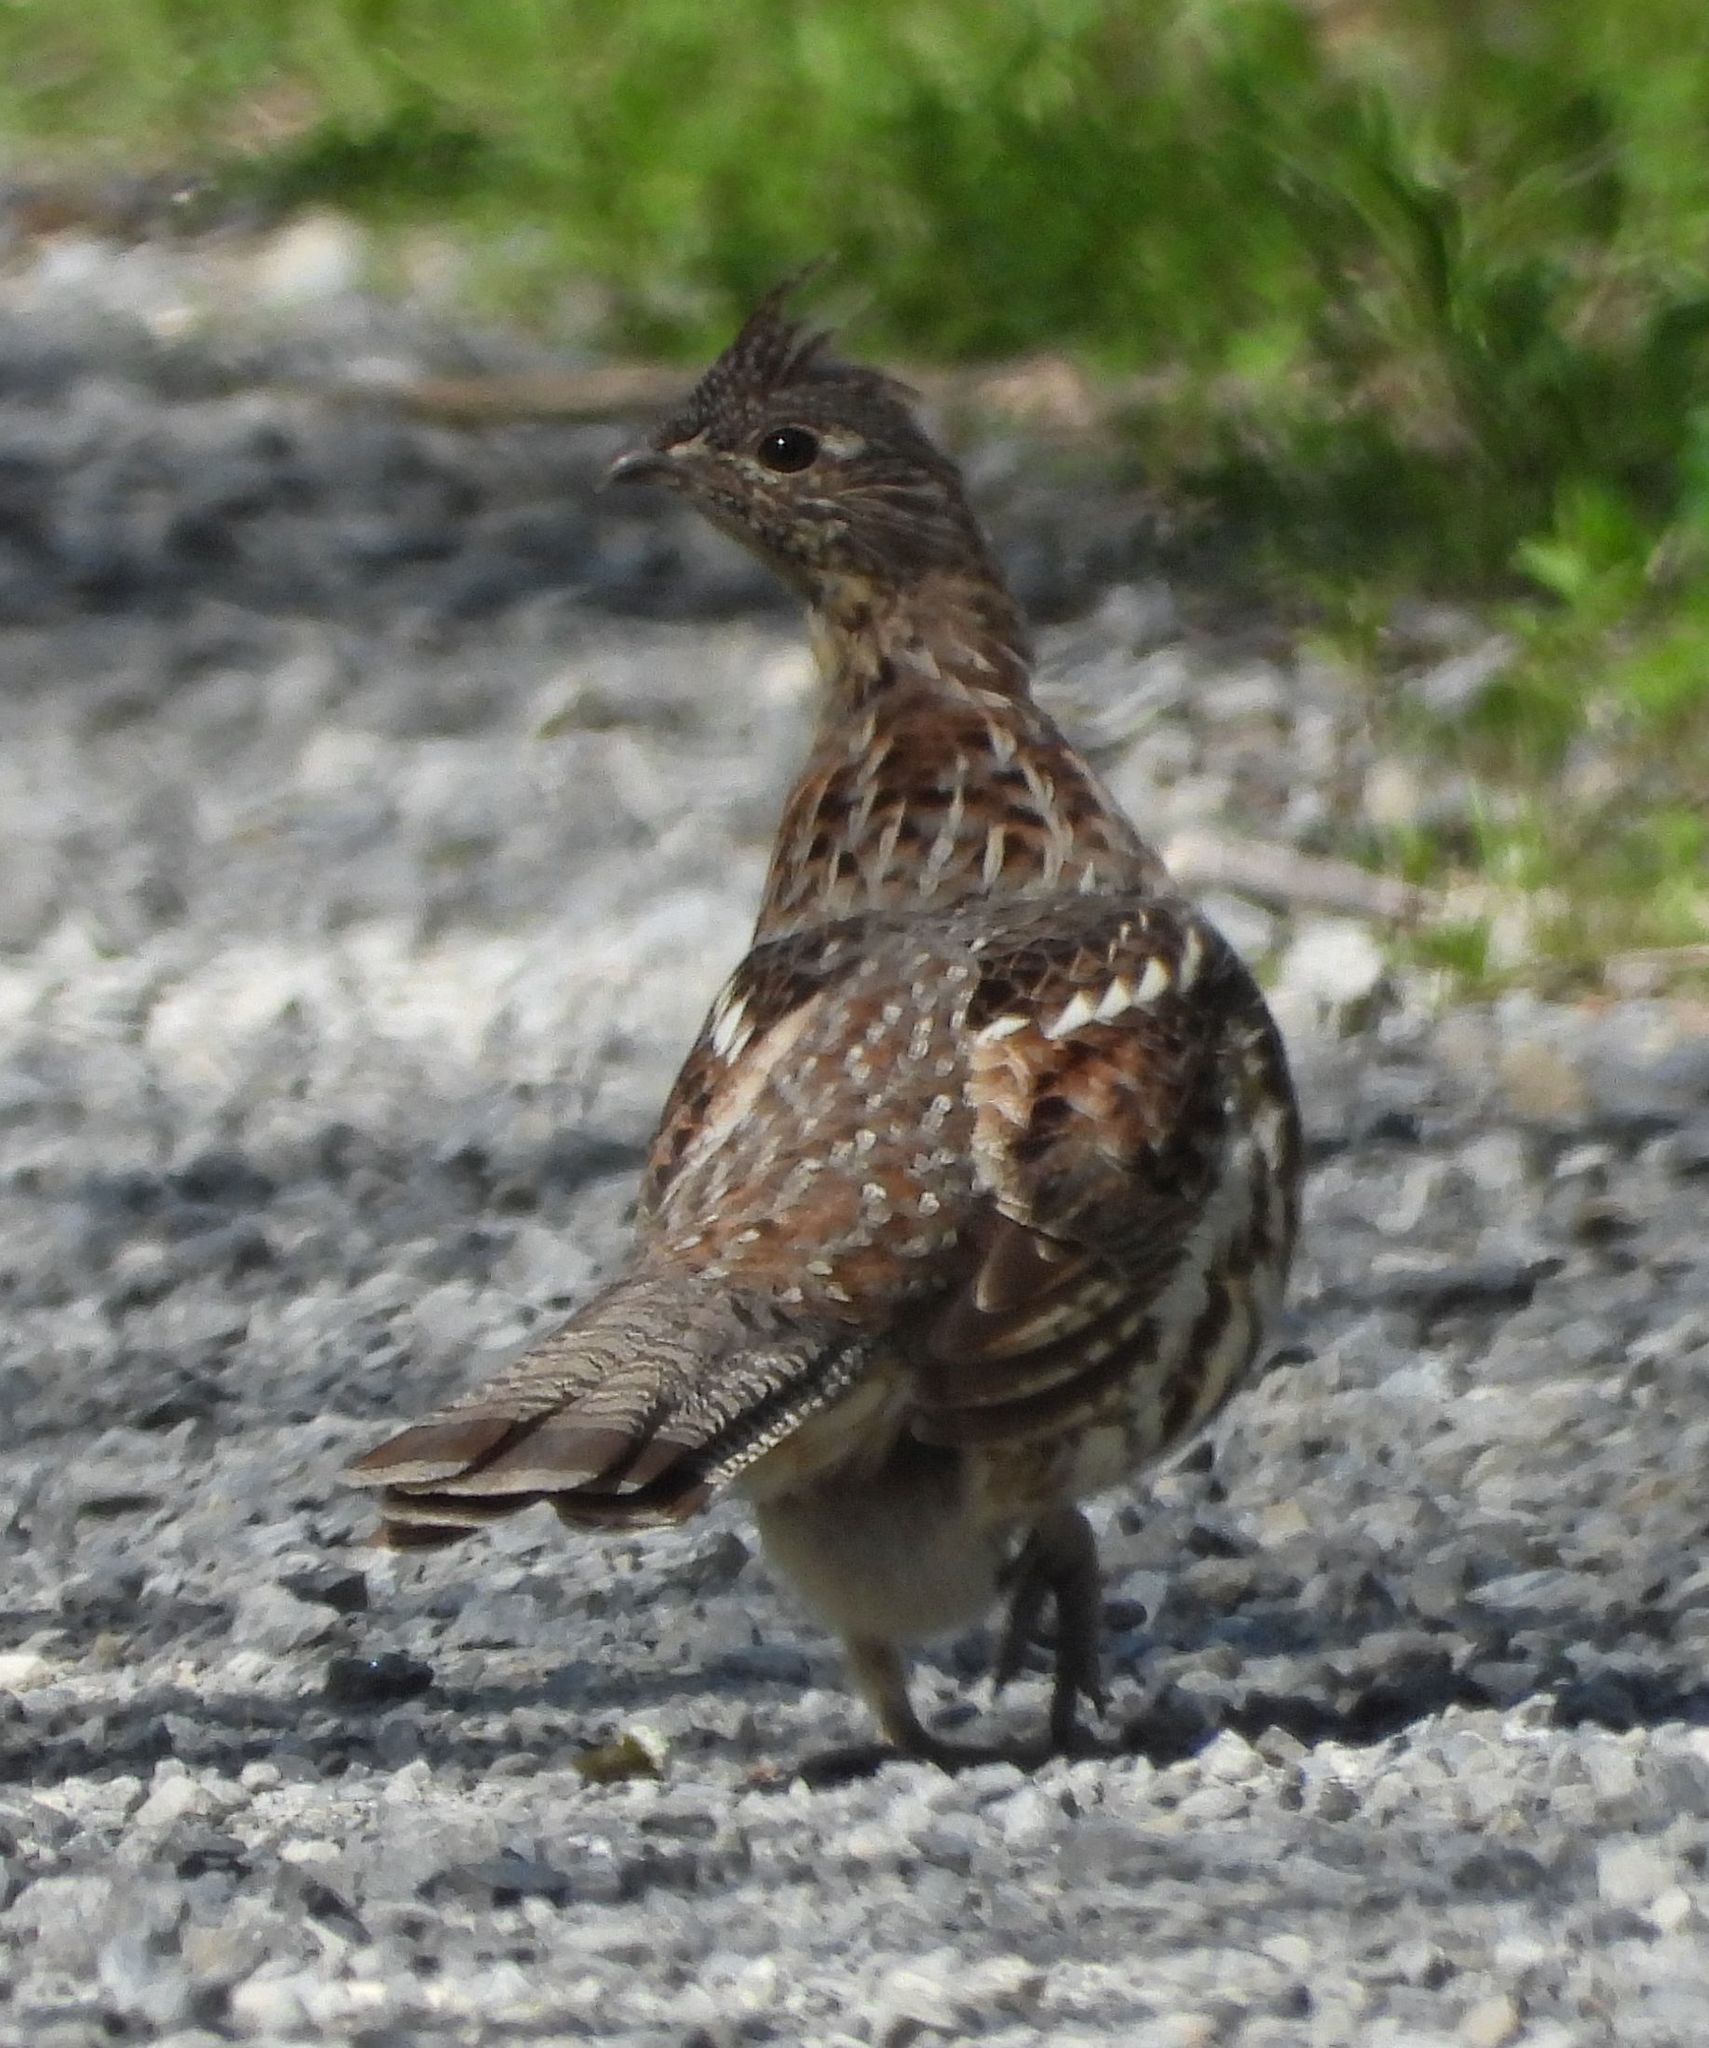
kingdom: Animalia
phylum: Chordata
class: Aves
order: Galliformes
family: Phasianidae
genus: Bonasa
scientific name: Bonasa umbellus
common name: Ruffed grouse
